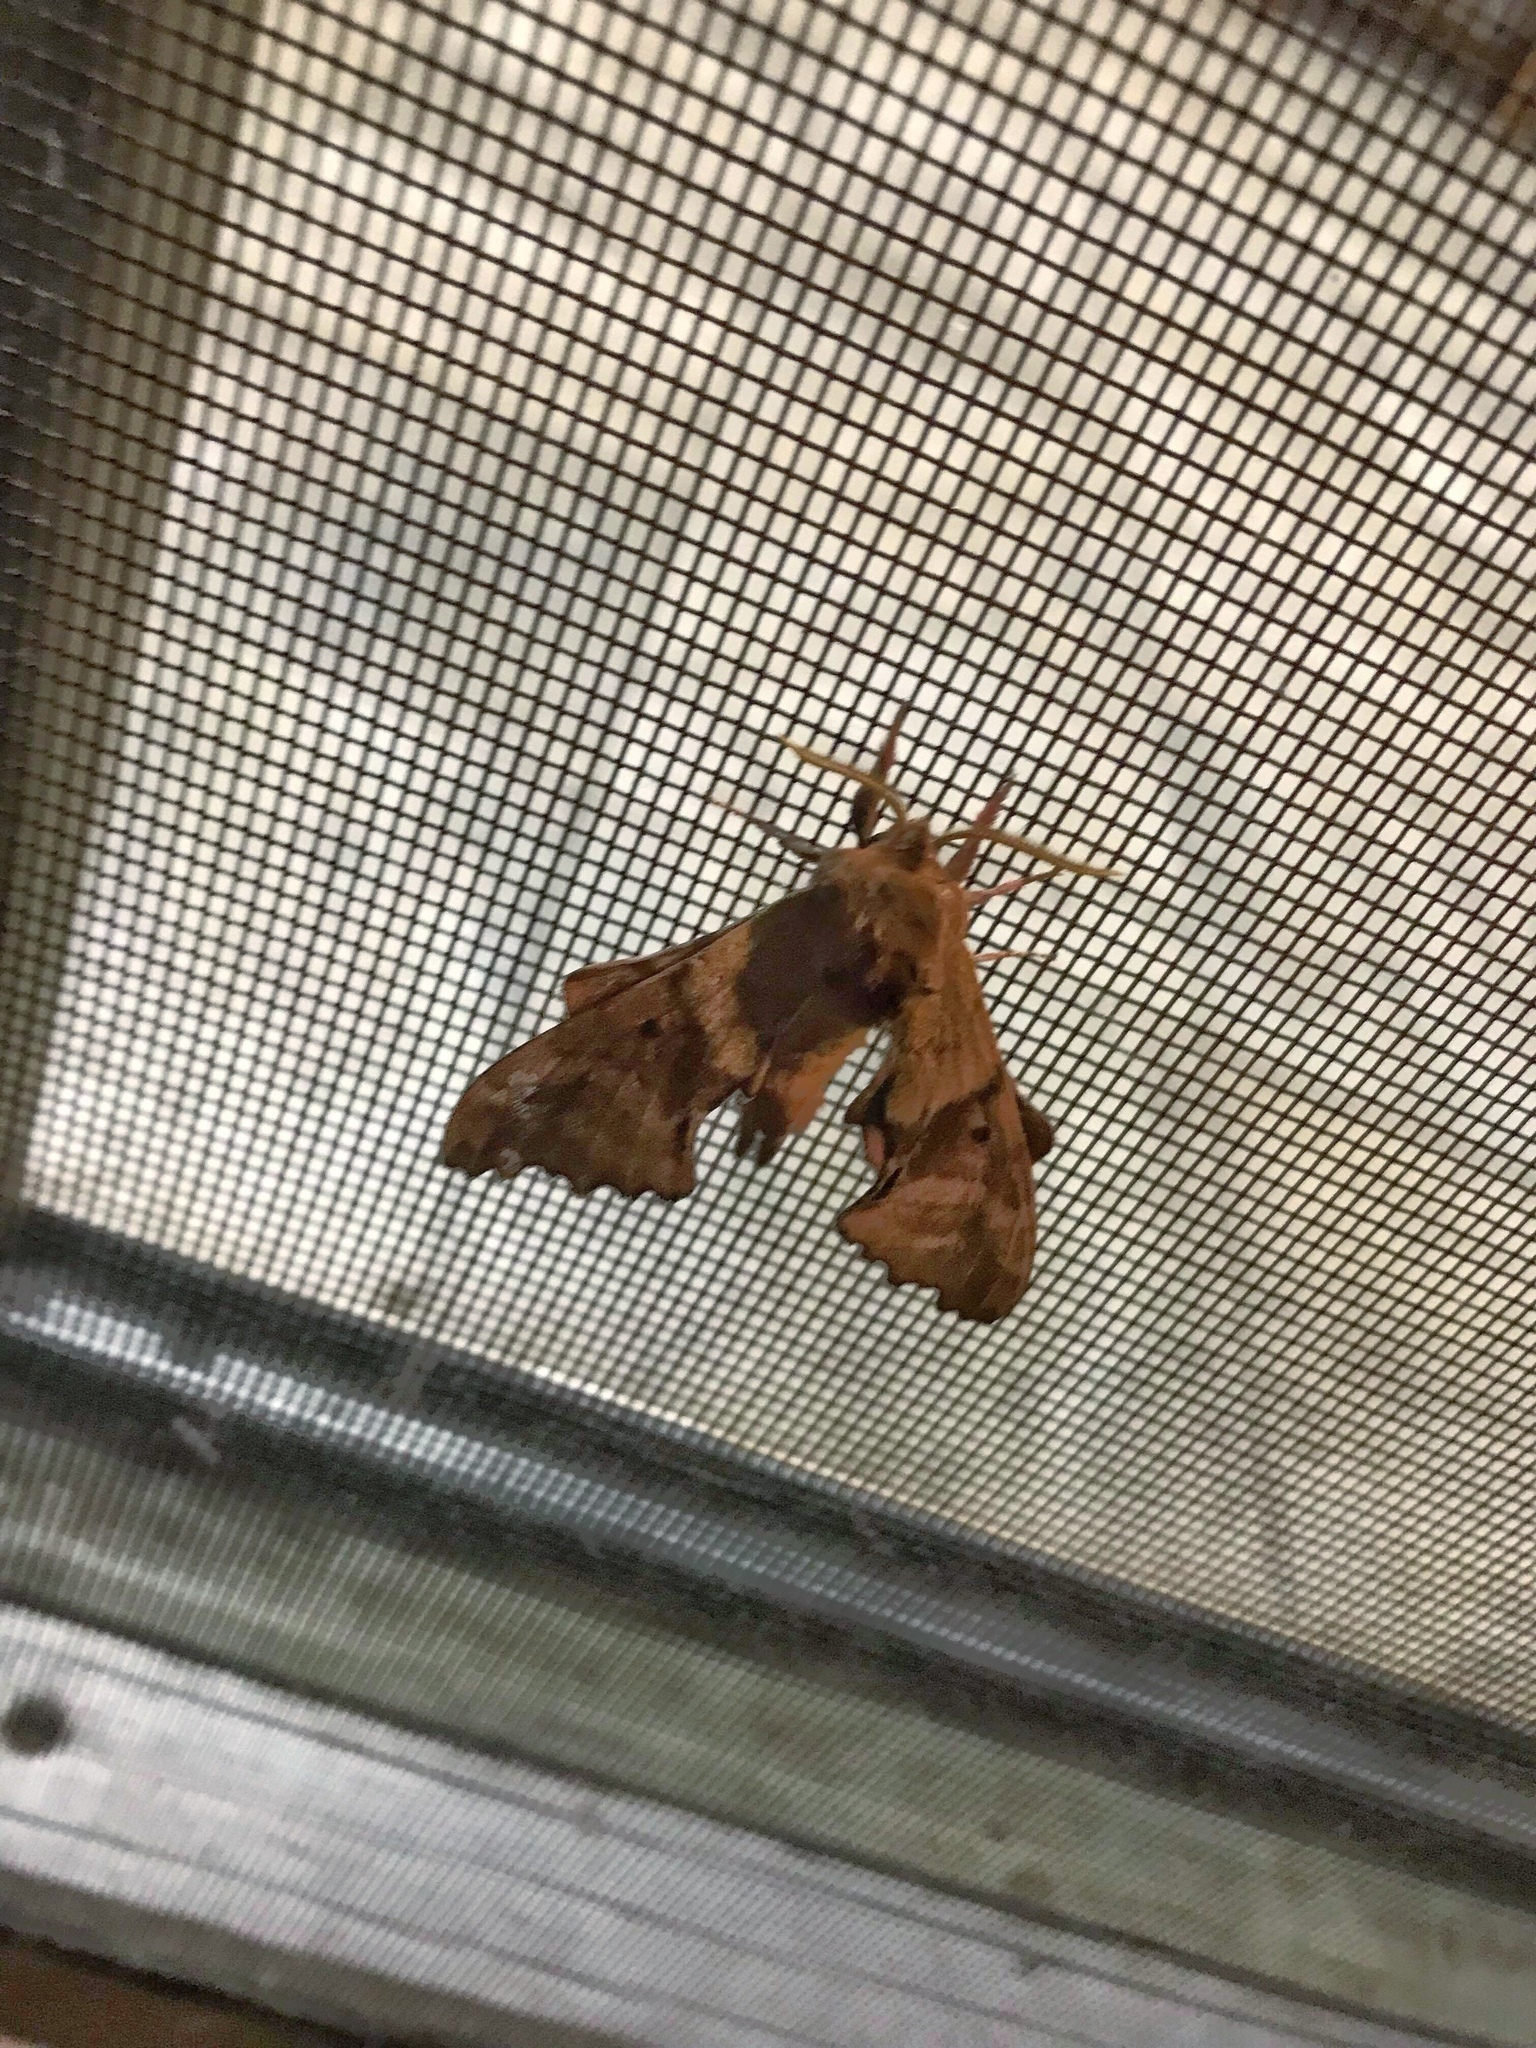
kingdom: Animalia
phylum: Arthropoda
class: Insecta
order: Lepidoptera
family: Sphingidae
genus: Paonias
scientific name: Paonias excaecata
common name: Blind-eyed sphinx
